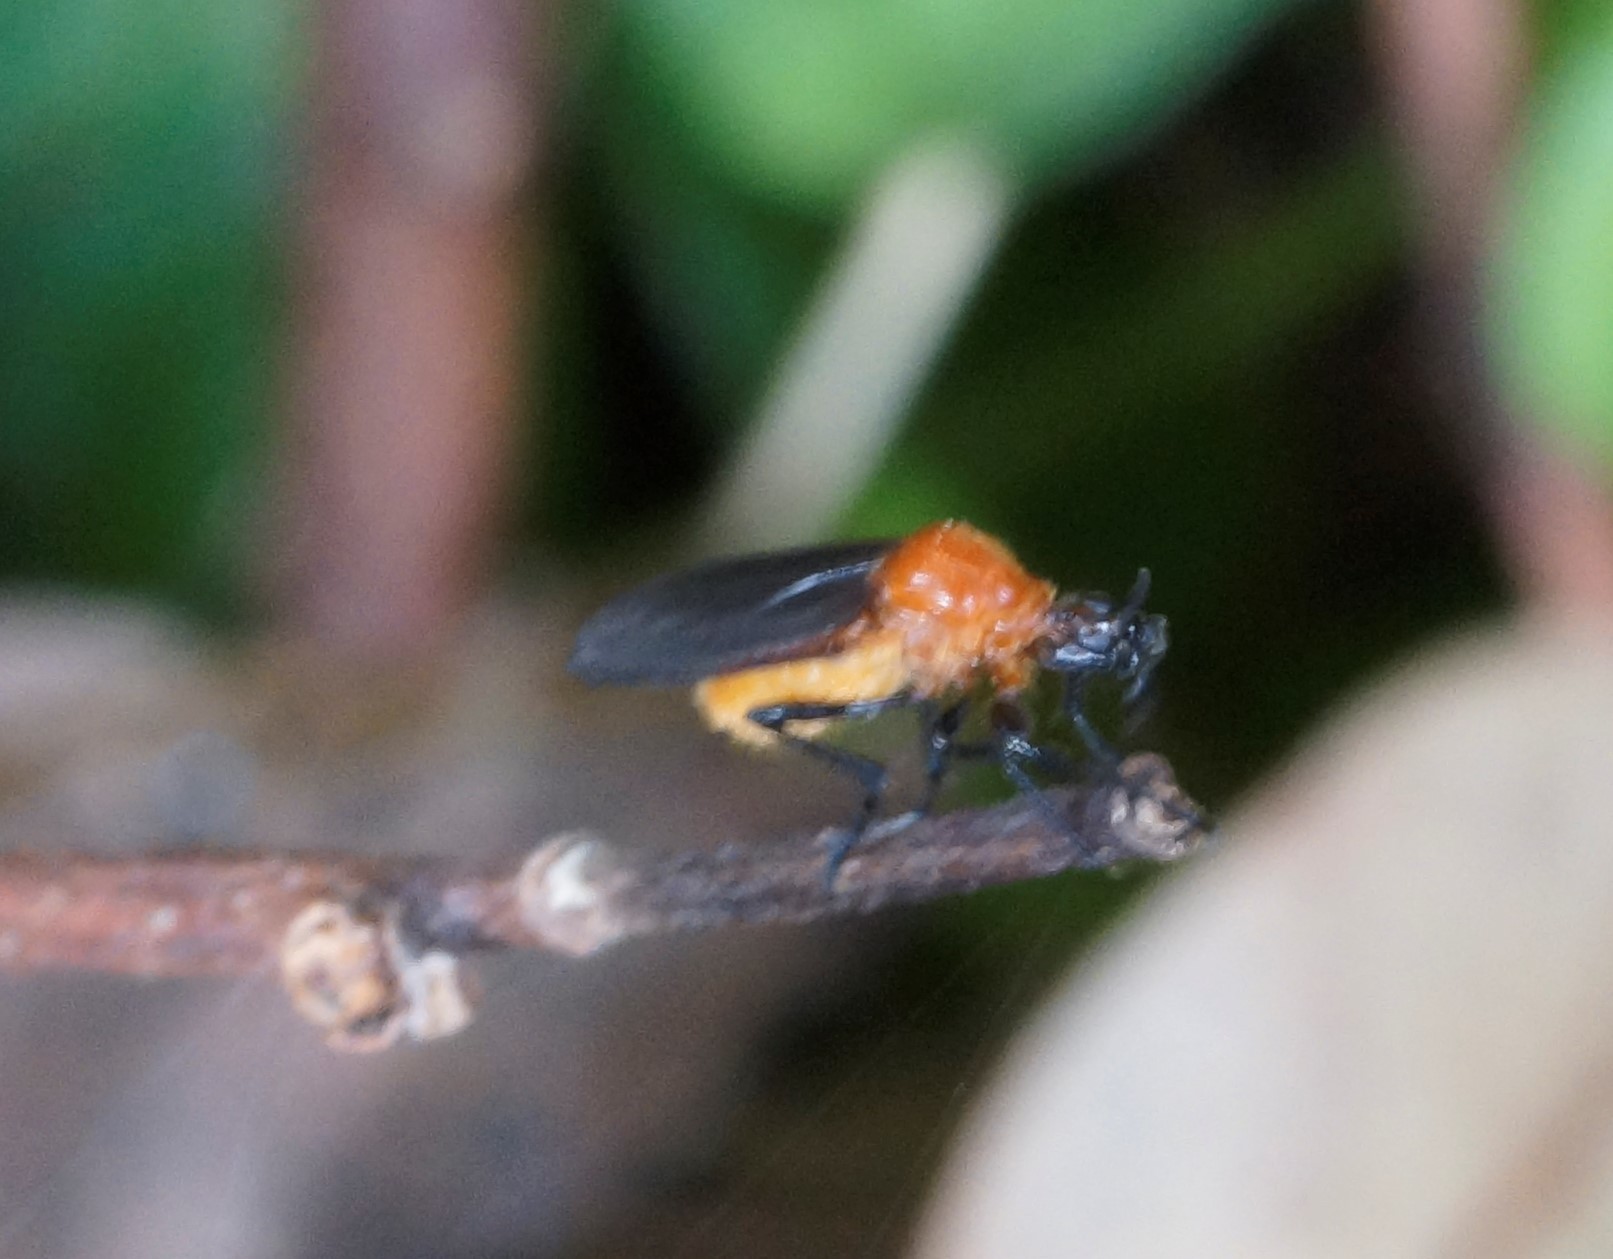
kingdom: Animalia
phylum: Arthropoda
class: Insecta
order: Diptera
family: Bibionidae
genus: Bibio
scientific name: Bibio imitator
